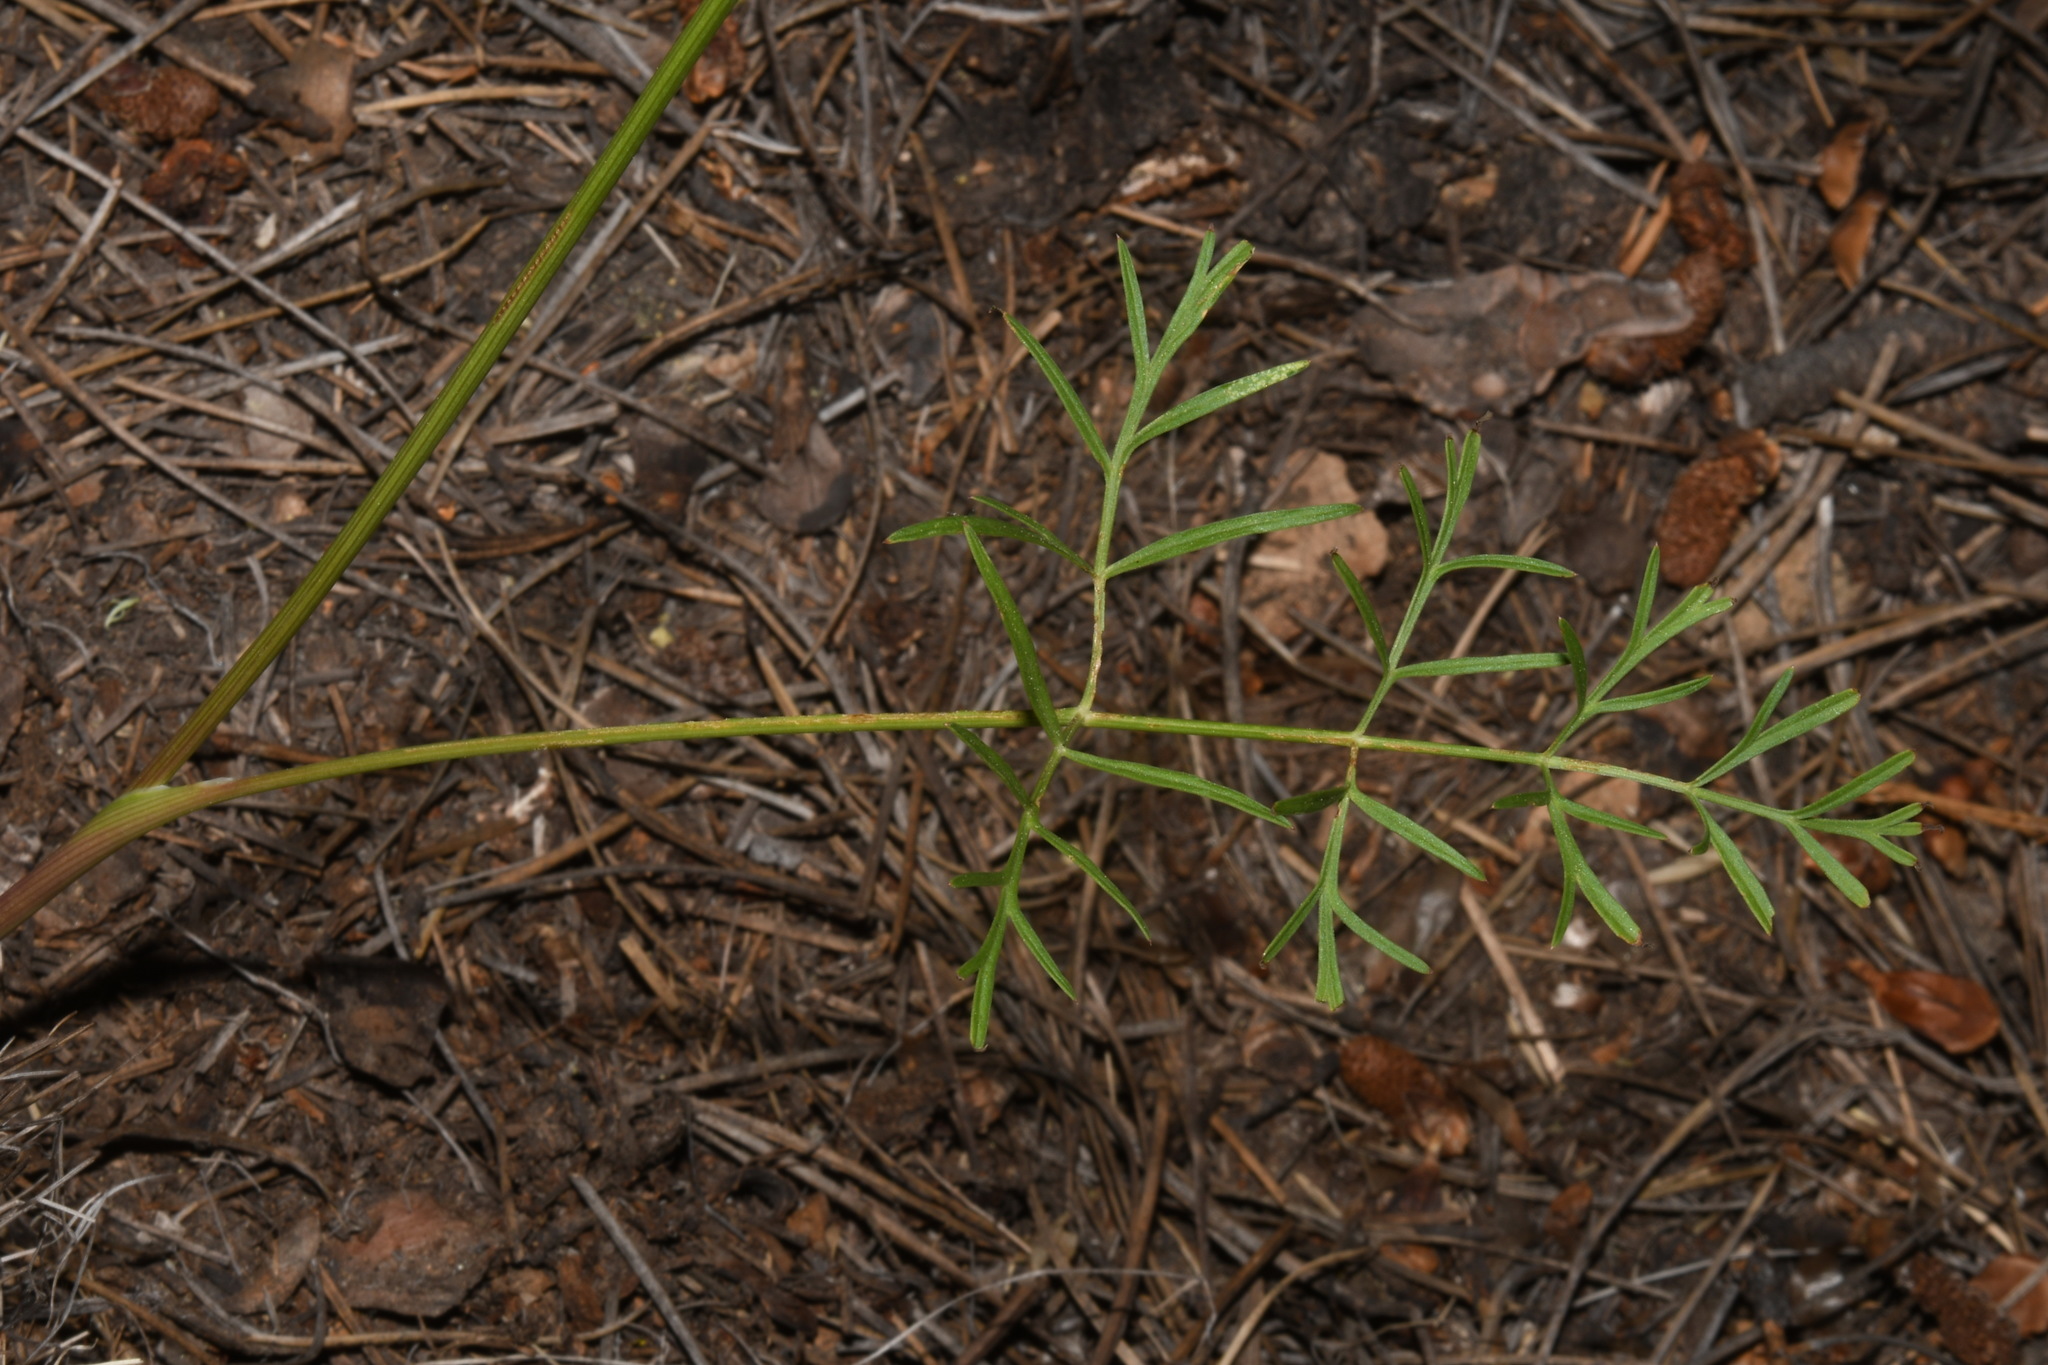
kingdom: Plantae
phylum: Tracheophyta
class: Magnoliopsida
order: Apiales
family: Apiaceae
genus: Cymopterus
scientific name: Cymopterus lemmonii
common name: Lemmon's spring-parsley
